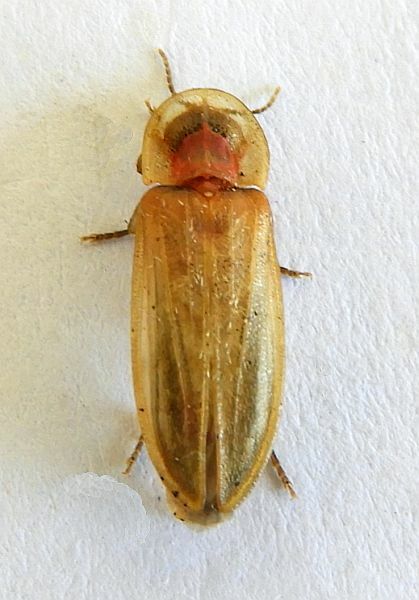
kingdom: Animalia
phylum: Arthropoda
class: Insecta
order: Coleoptera
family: Lampyridae
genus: Prolutacea
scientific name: Prolutacea pulsator
